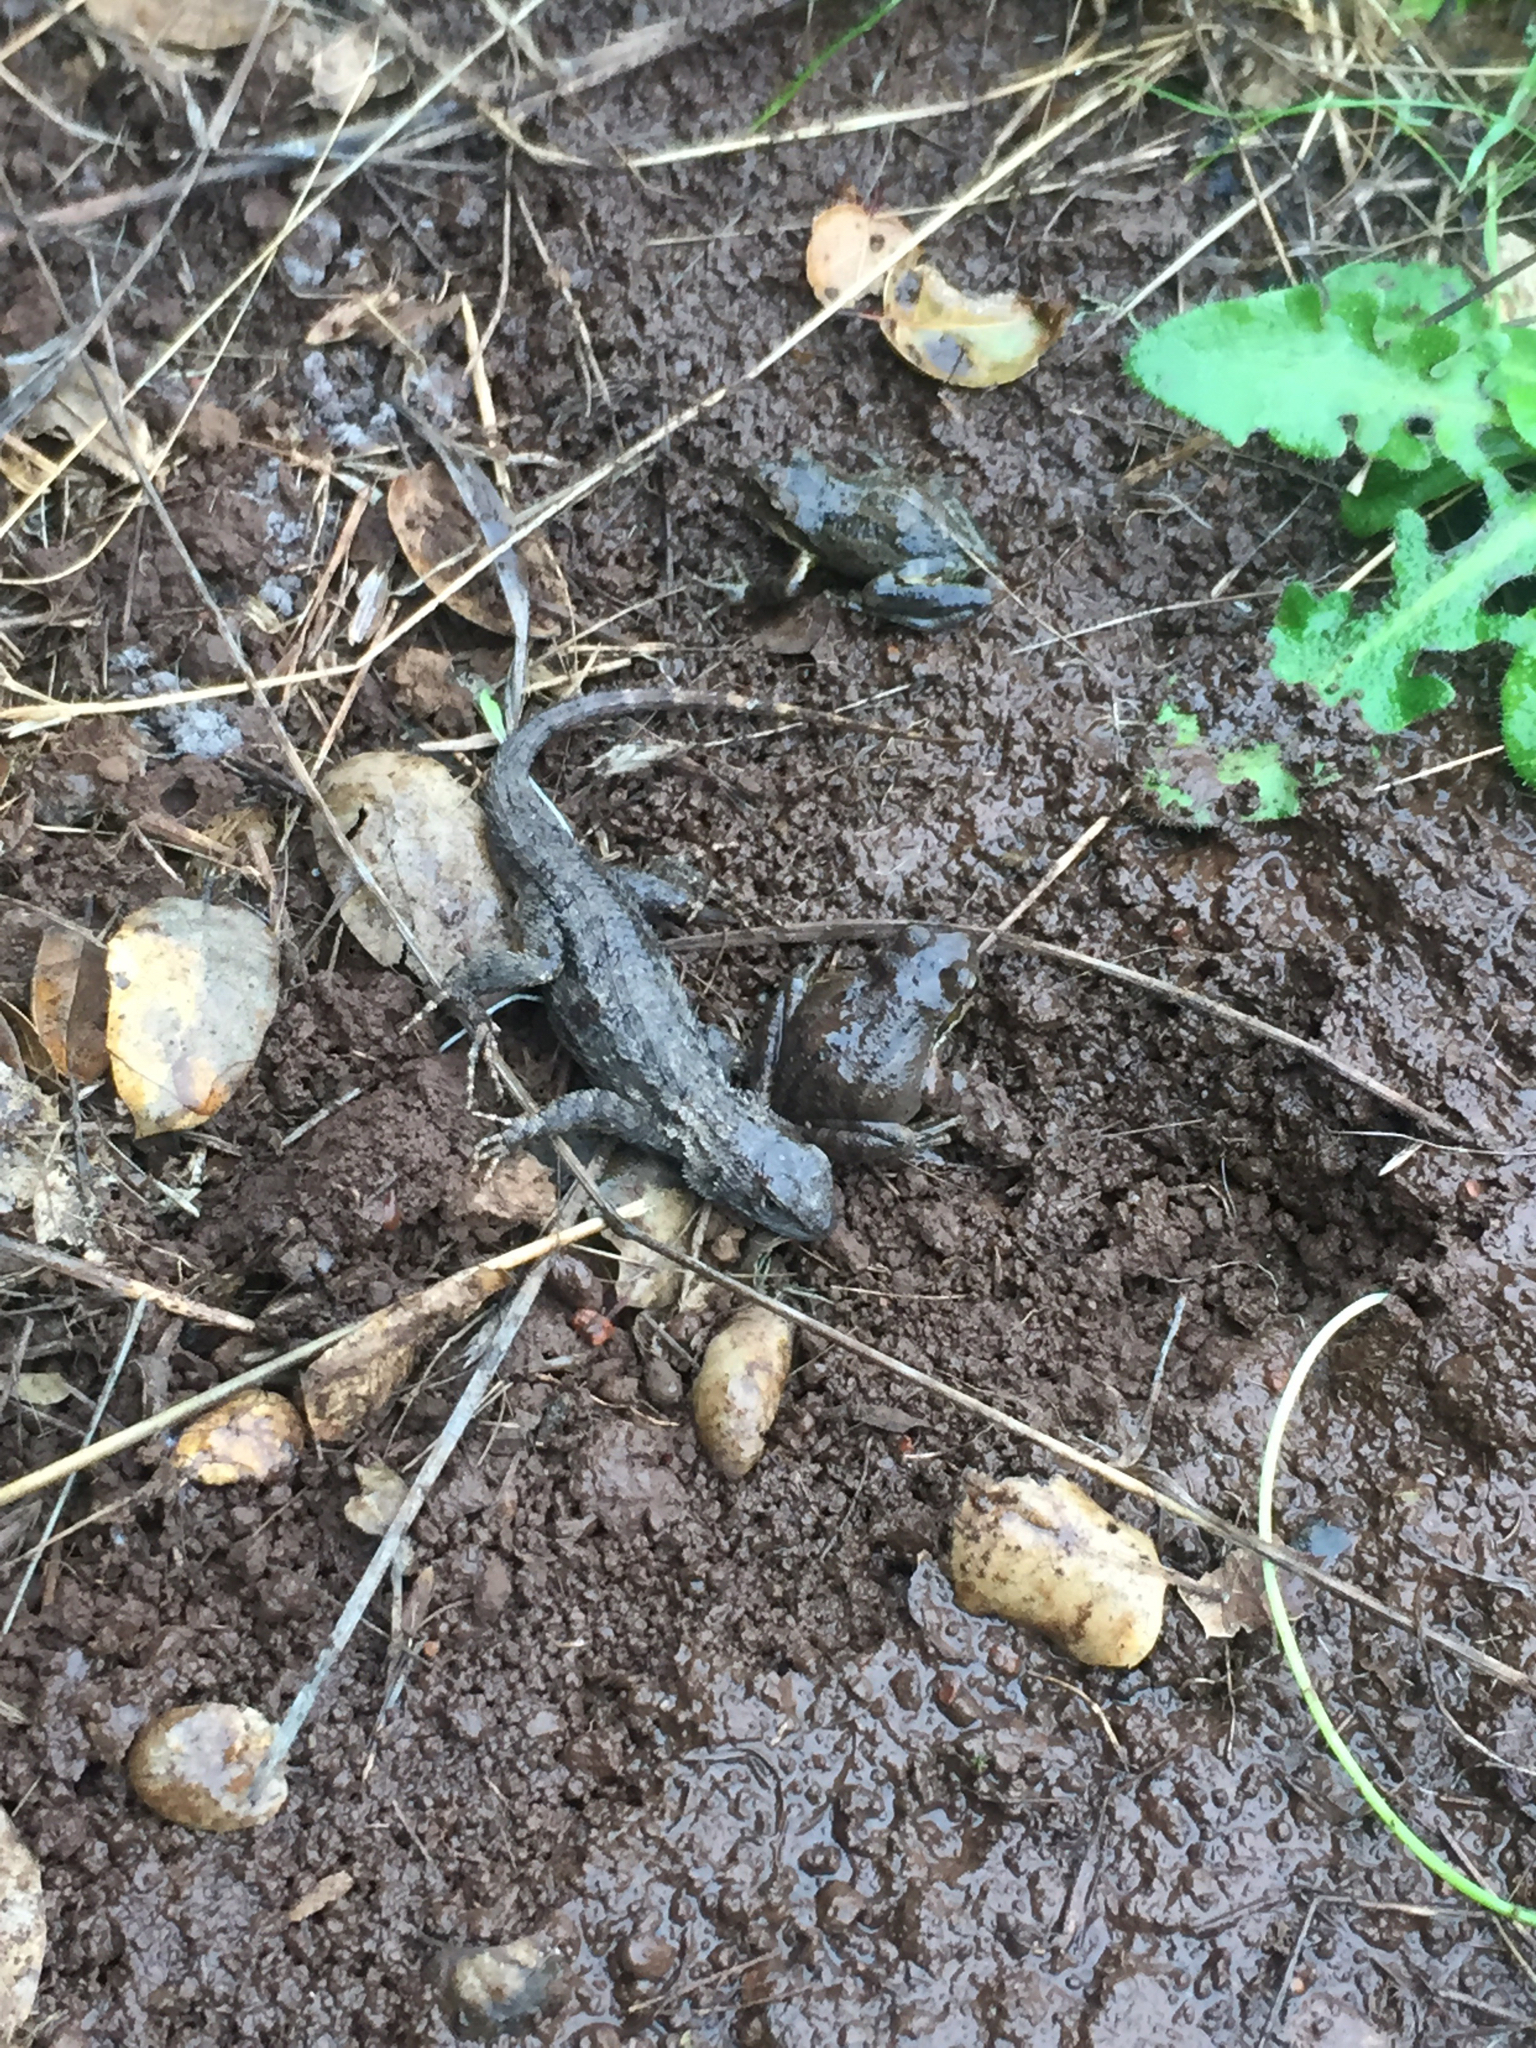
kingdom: Animalia
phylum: Chordata
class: Amphibia
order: Anura
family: Hylidae
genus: Pseudacris
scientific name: Pseudacris regilla
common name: Pacific chorus frog
